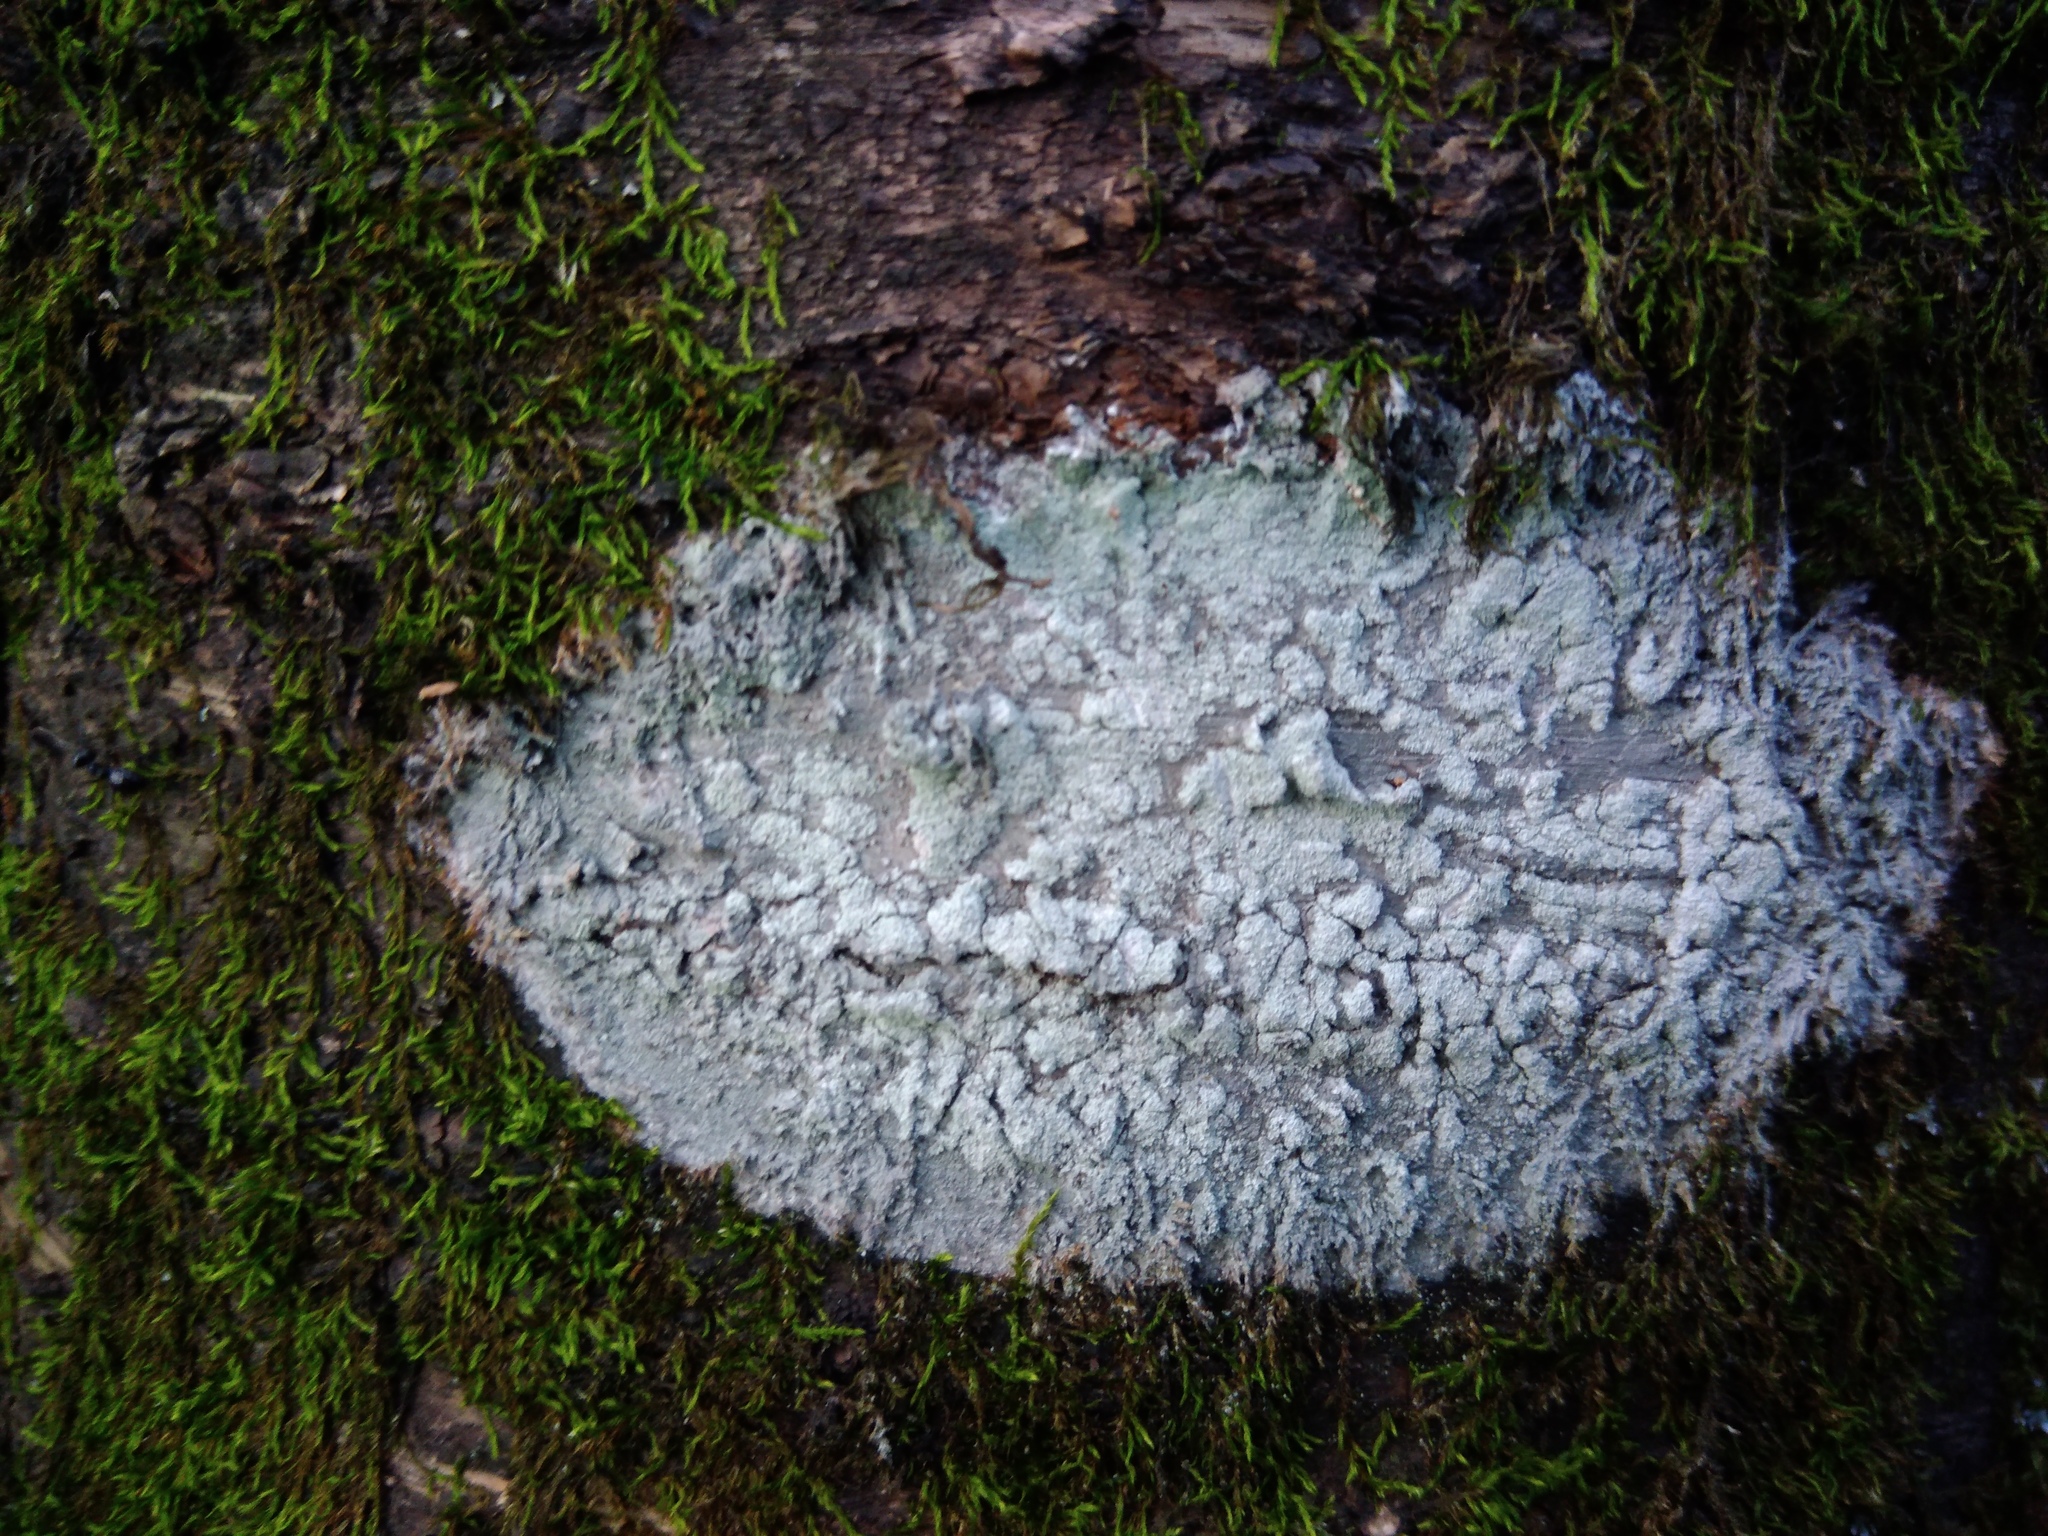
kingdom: Fungi
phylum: Ascomycota
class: Lecanoromycetes
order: Ostropales
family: Phlyctidaceae
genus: Phlyctis
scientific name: Phlyctis argena
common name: Whitewash lichen
